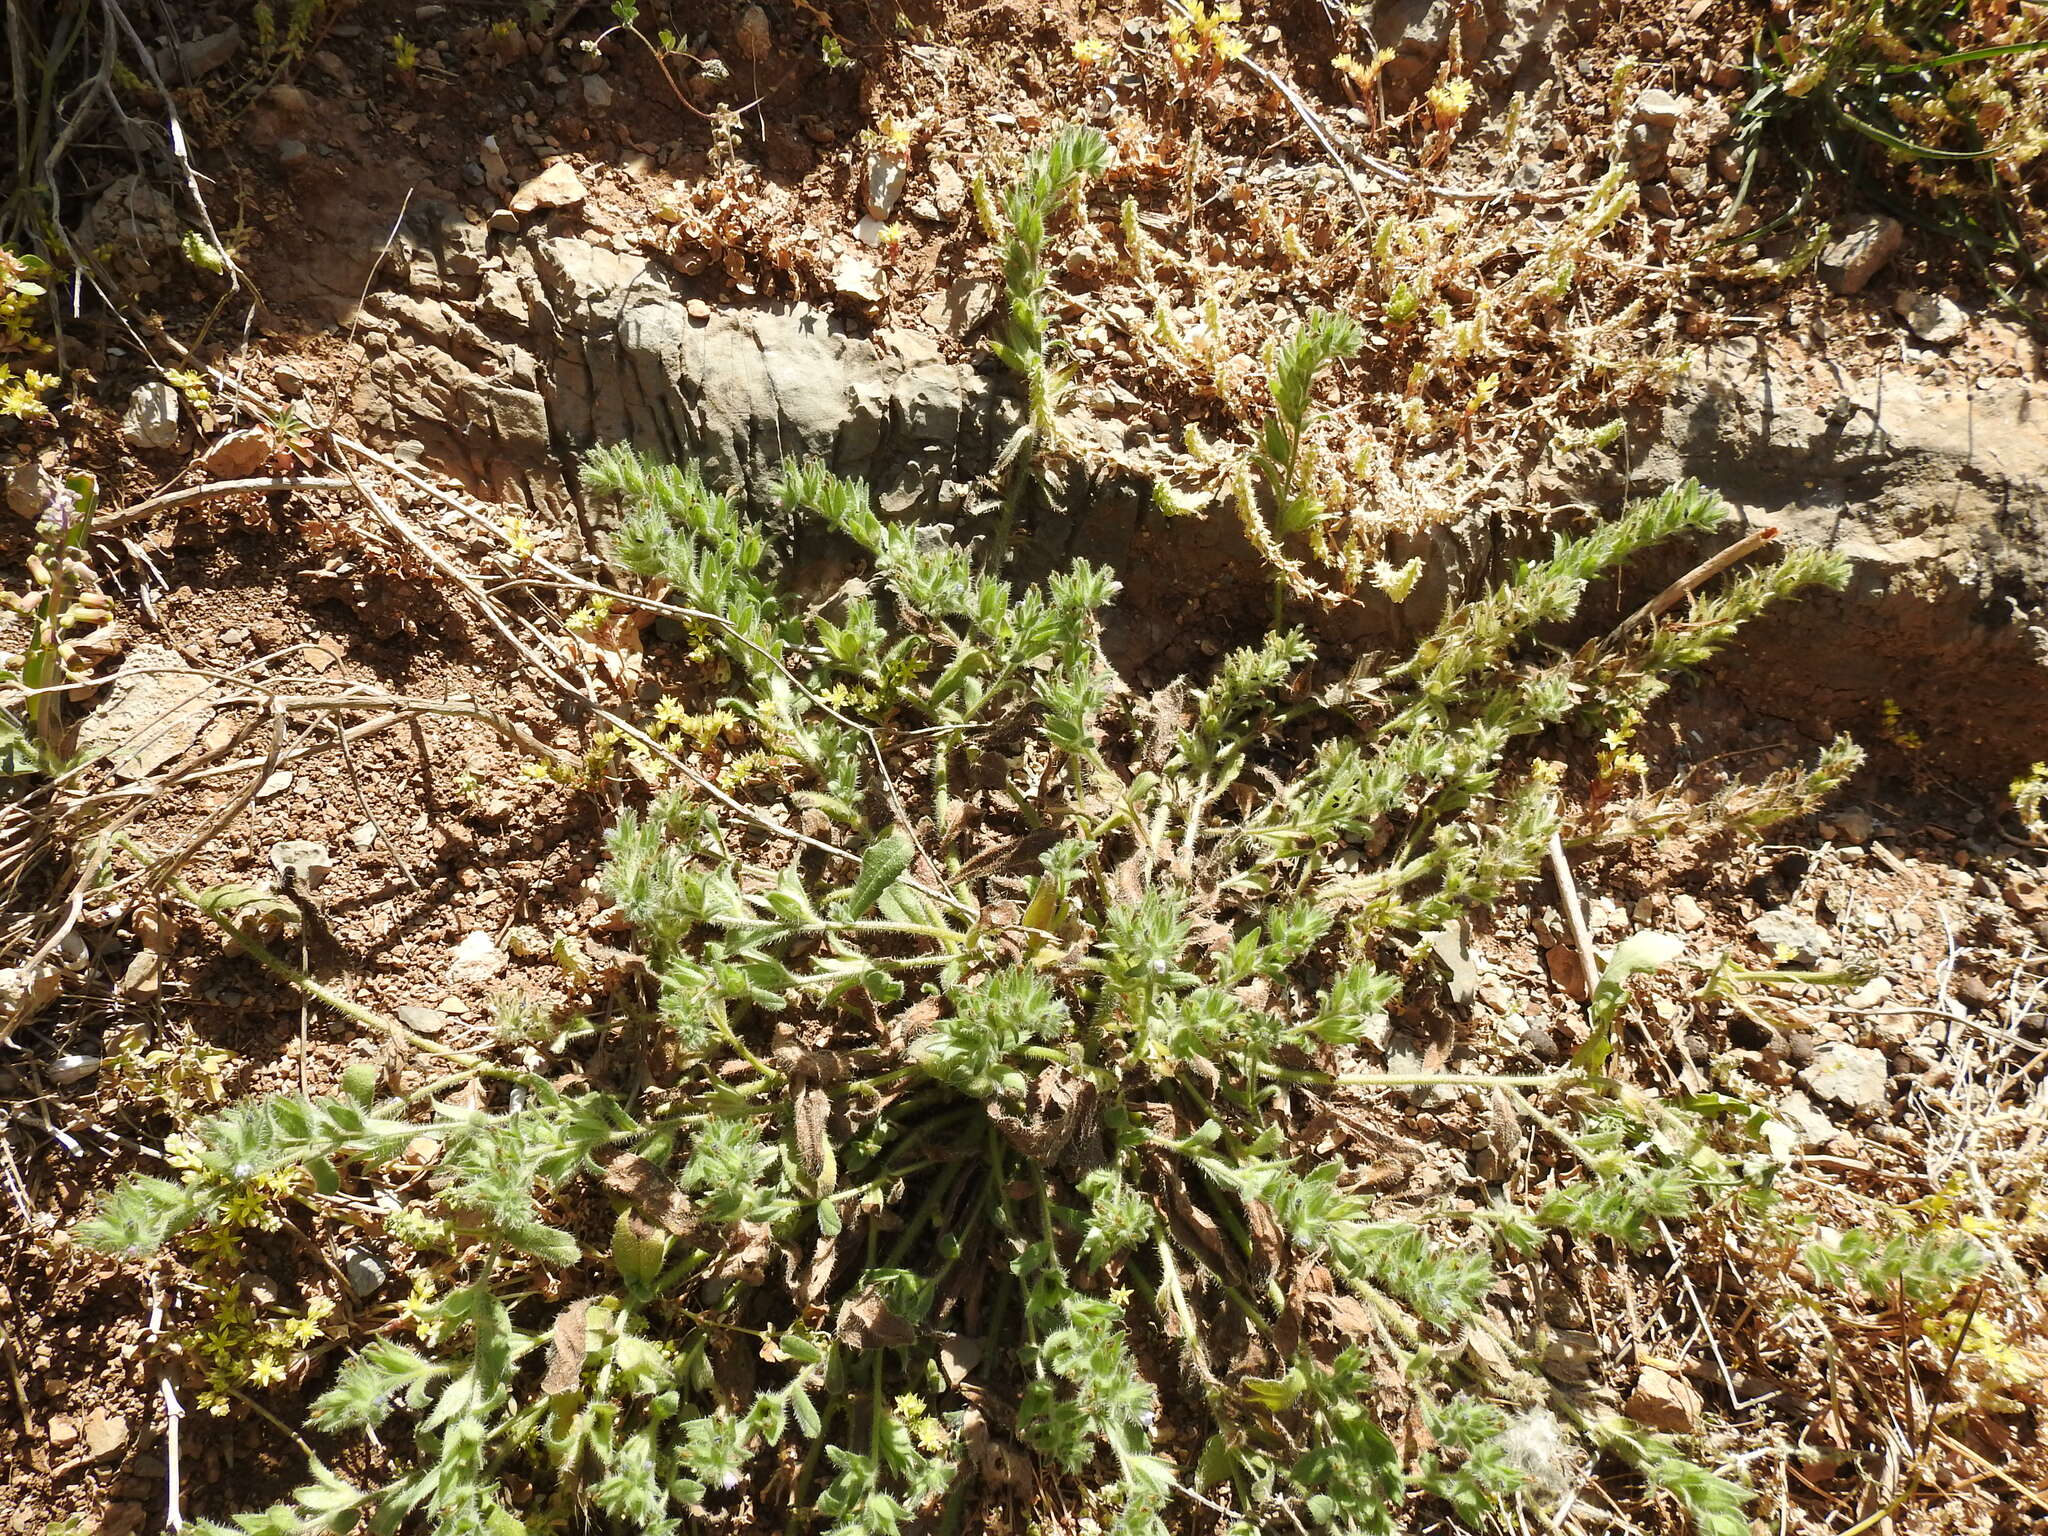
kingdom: Plantae
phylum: Tracheophyta
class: Magnoliopsida
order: Boraginales
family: Boraginaceae
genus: Echium
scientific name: Echium parviflorum
